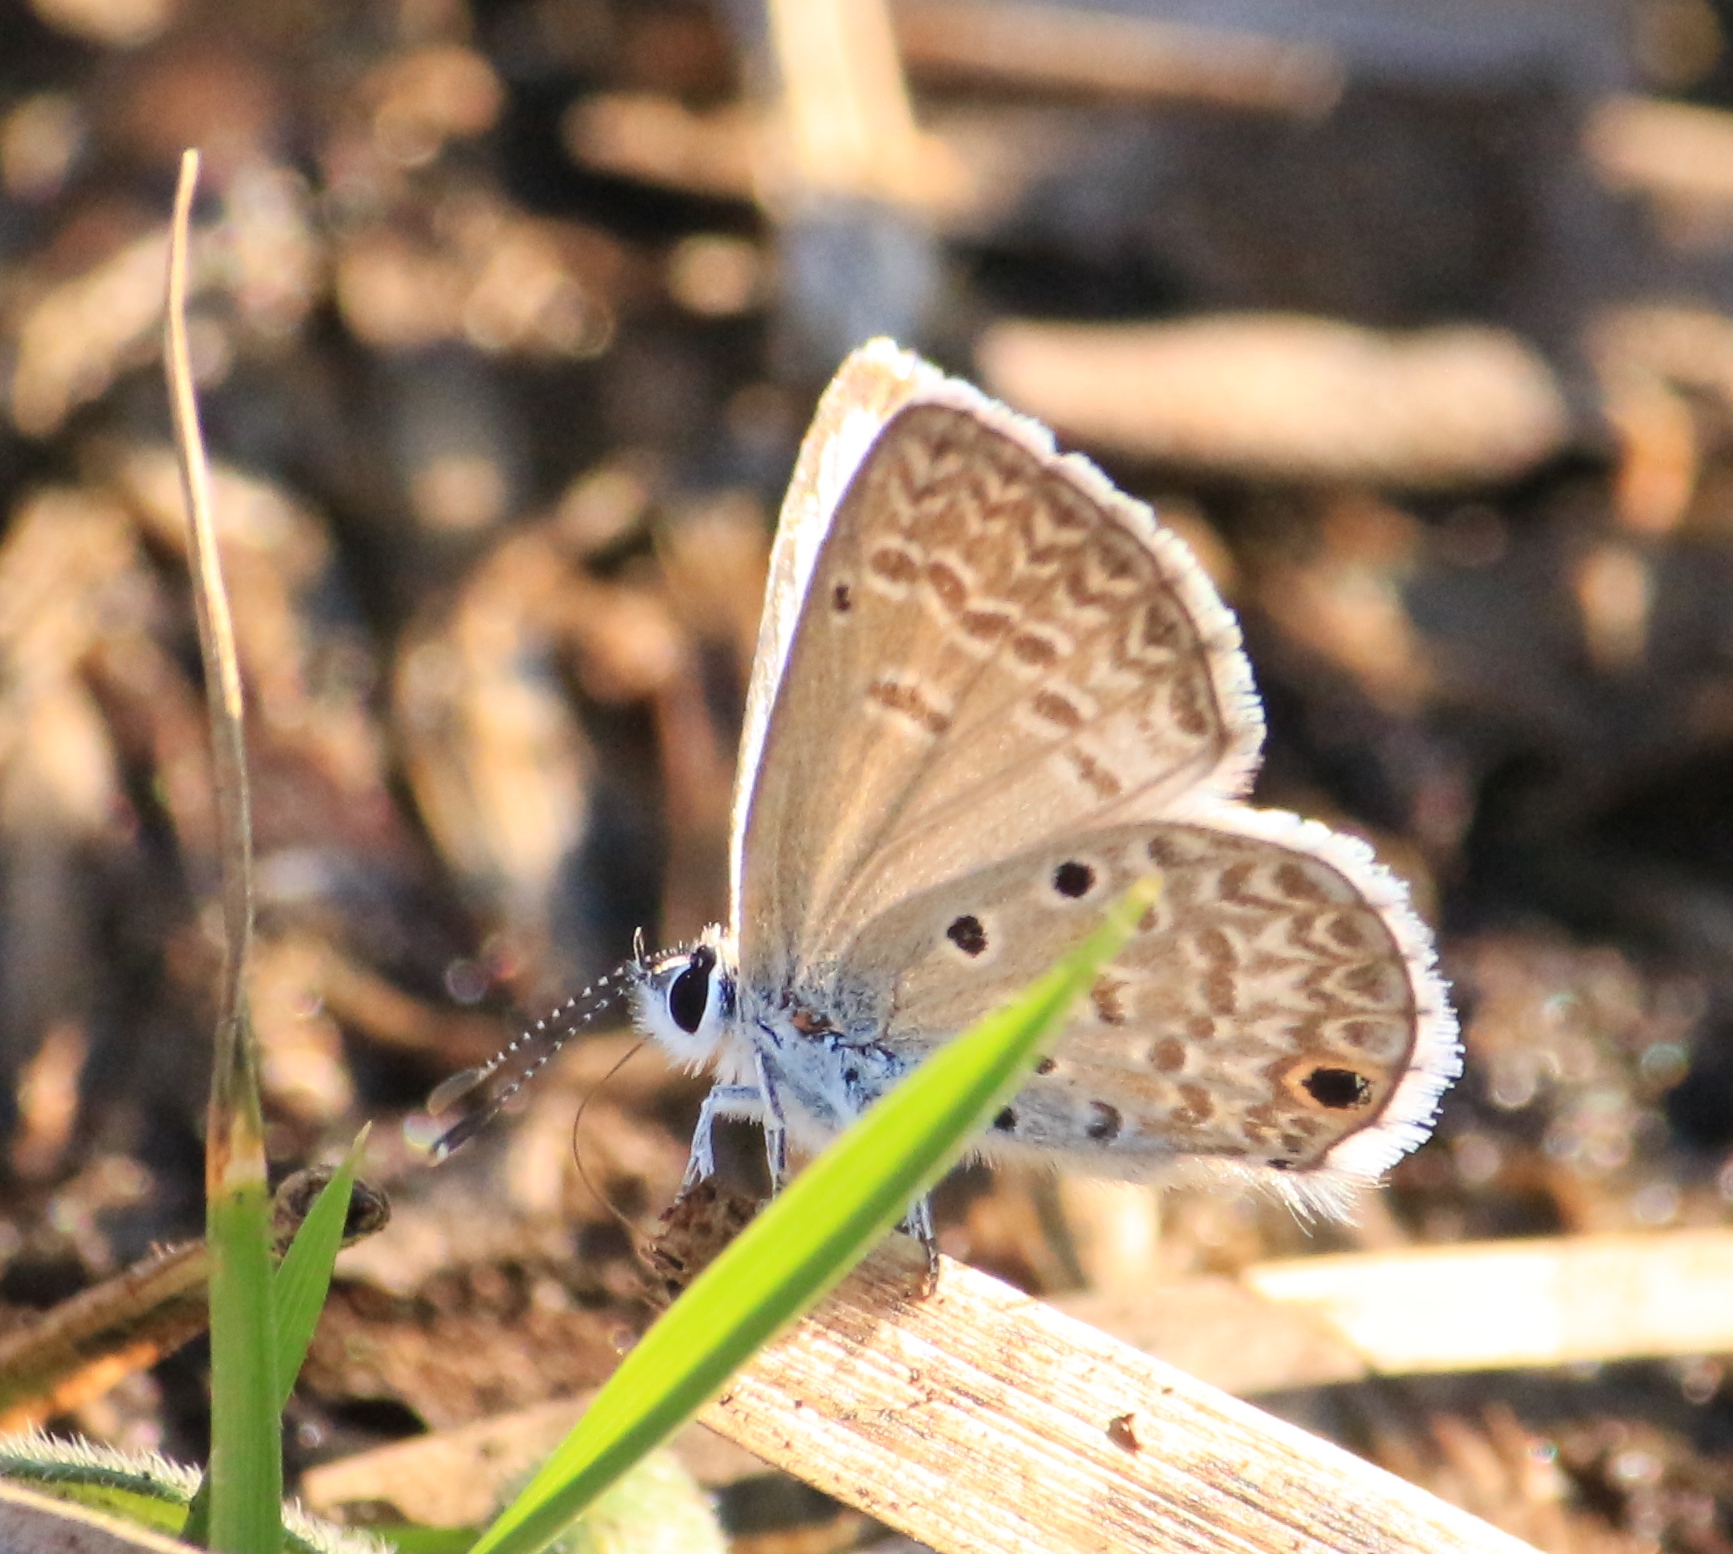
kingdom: Animalia
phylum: Arthropoda
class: Insecta
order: Lepidoptera
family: Lycaenidae
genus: Hemiargus
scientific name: Hemiargus hanno
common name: Common blue
